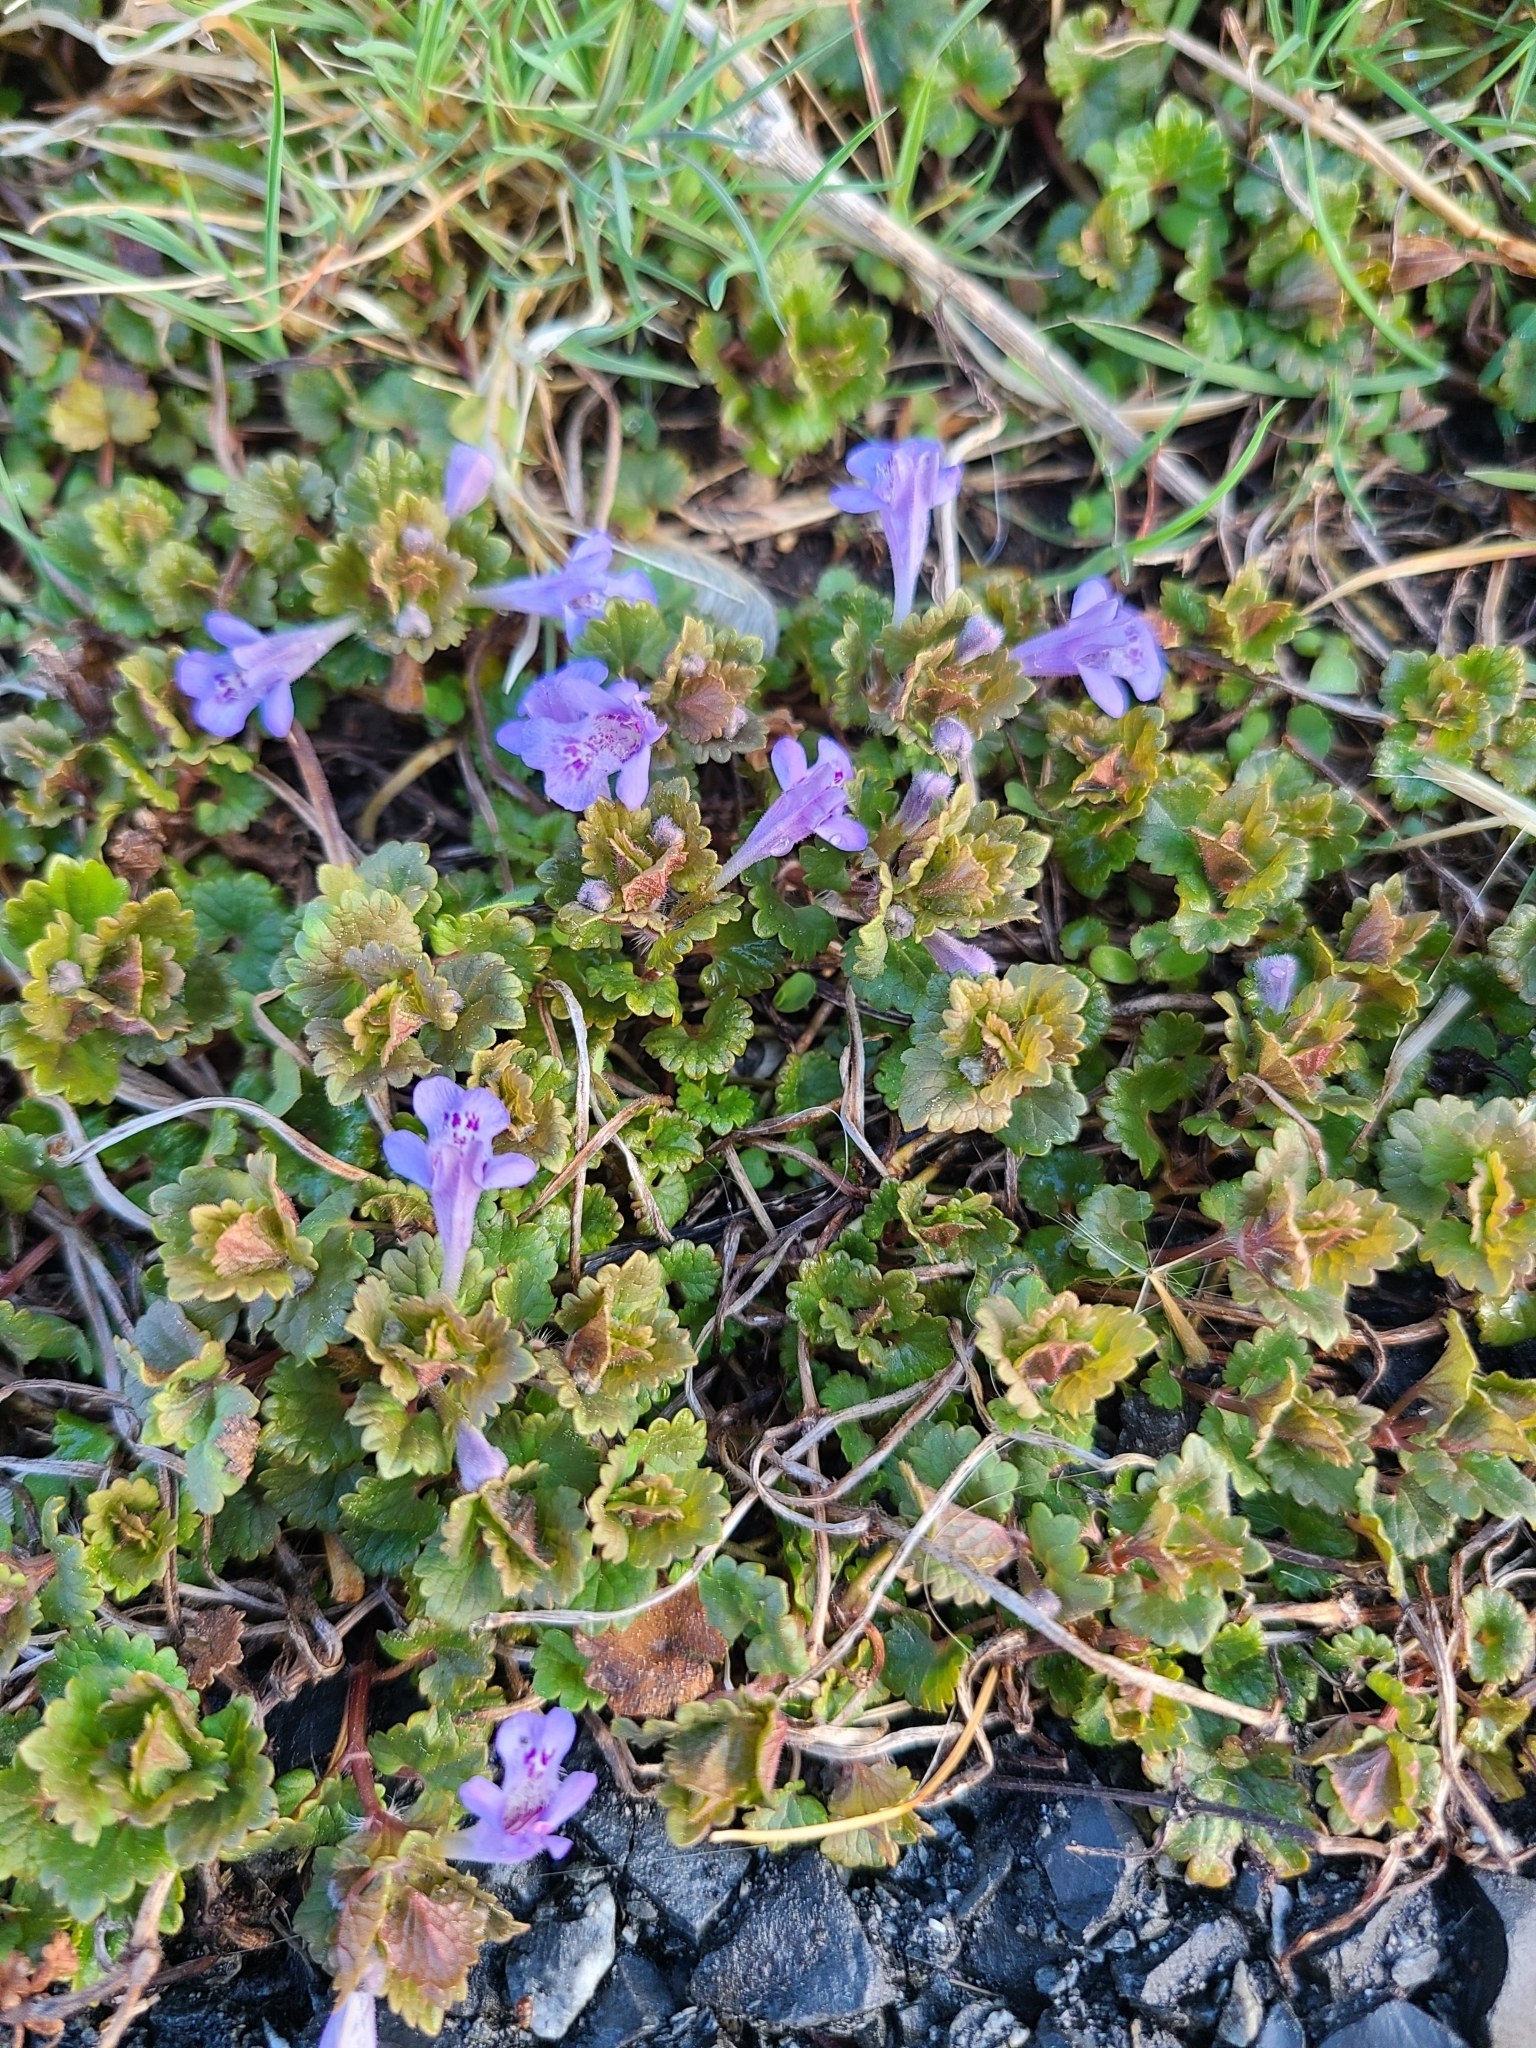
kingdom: Plantae
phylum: Tracheophyta
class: Magnoliopsida
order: Lamiales
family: Lamiaceae
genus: Glechoma
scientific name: Glechoma hederacea
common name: Ground ivy
